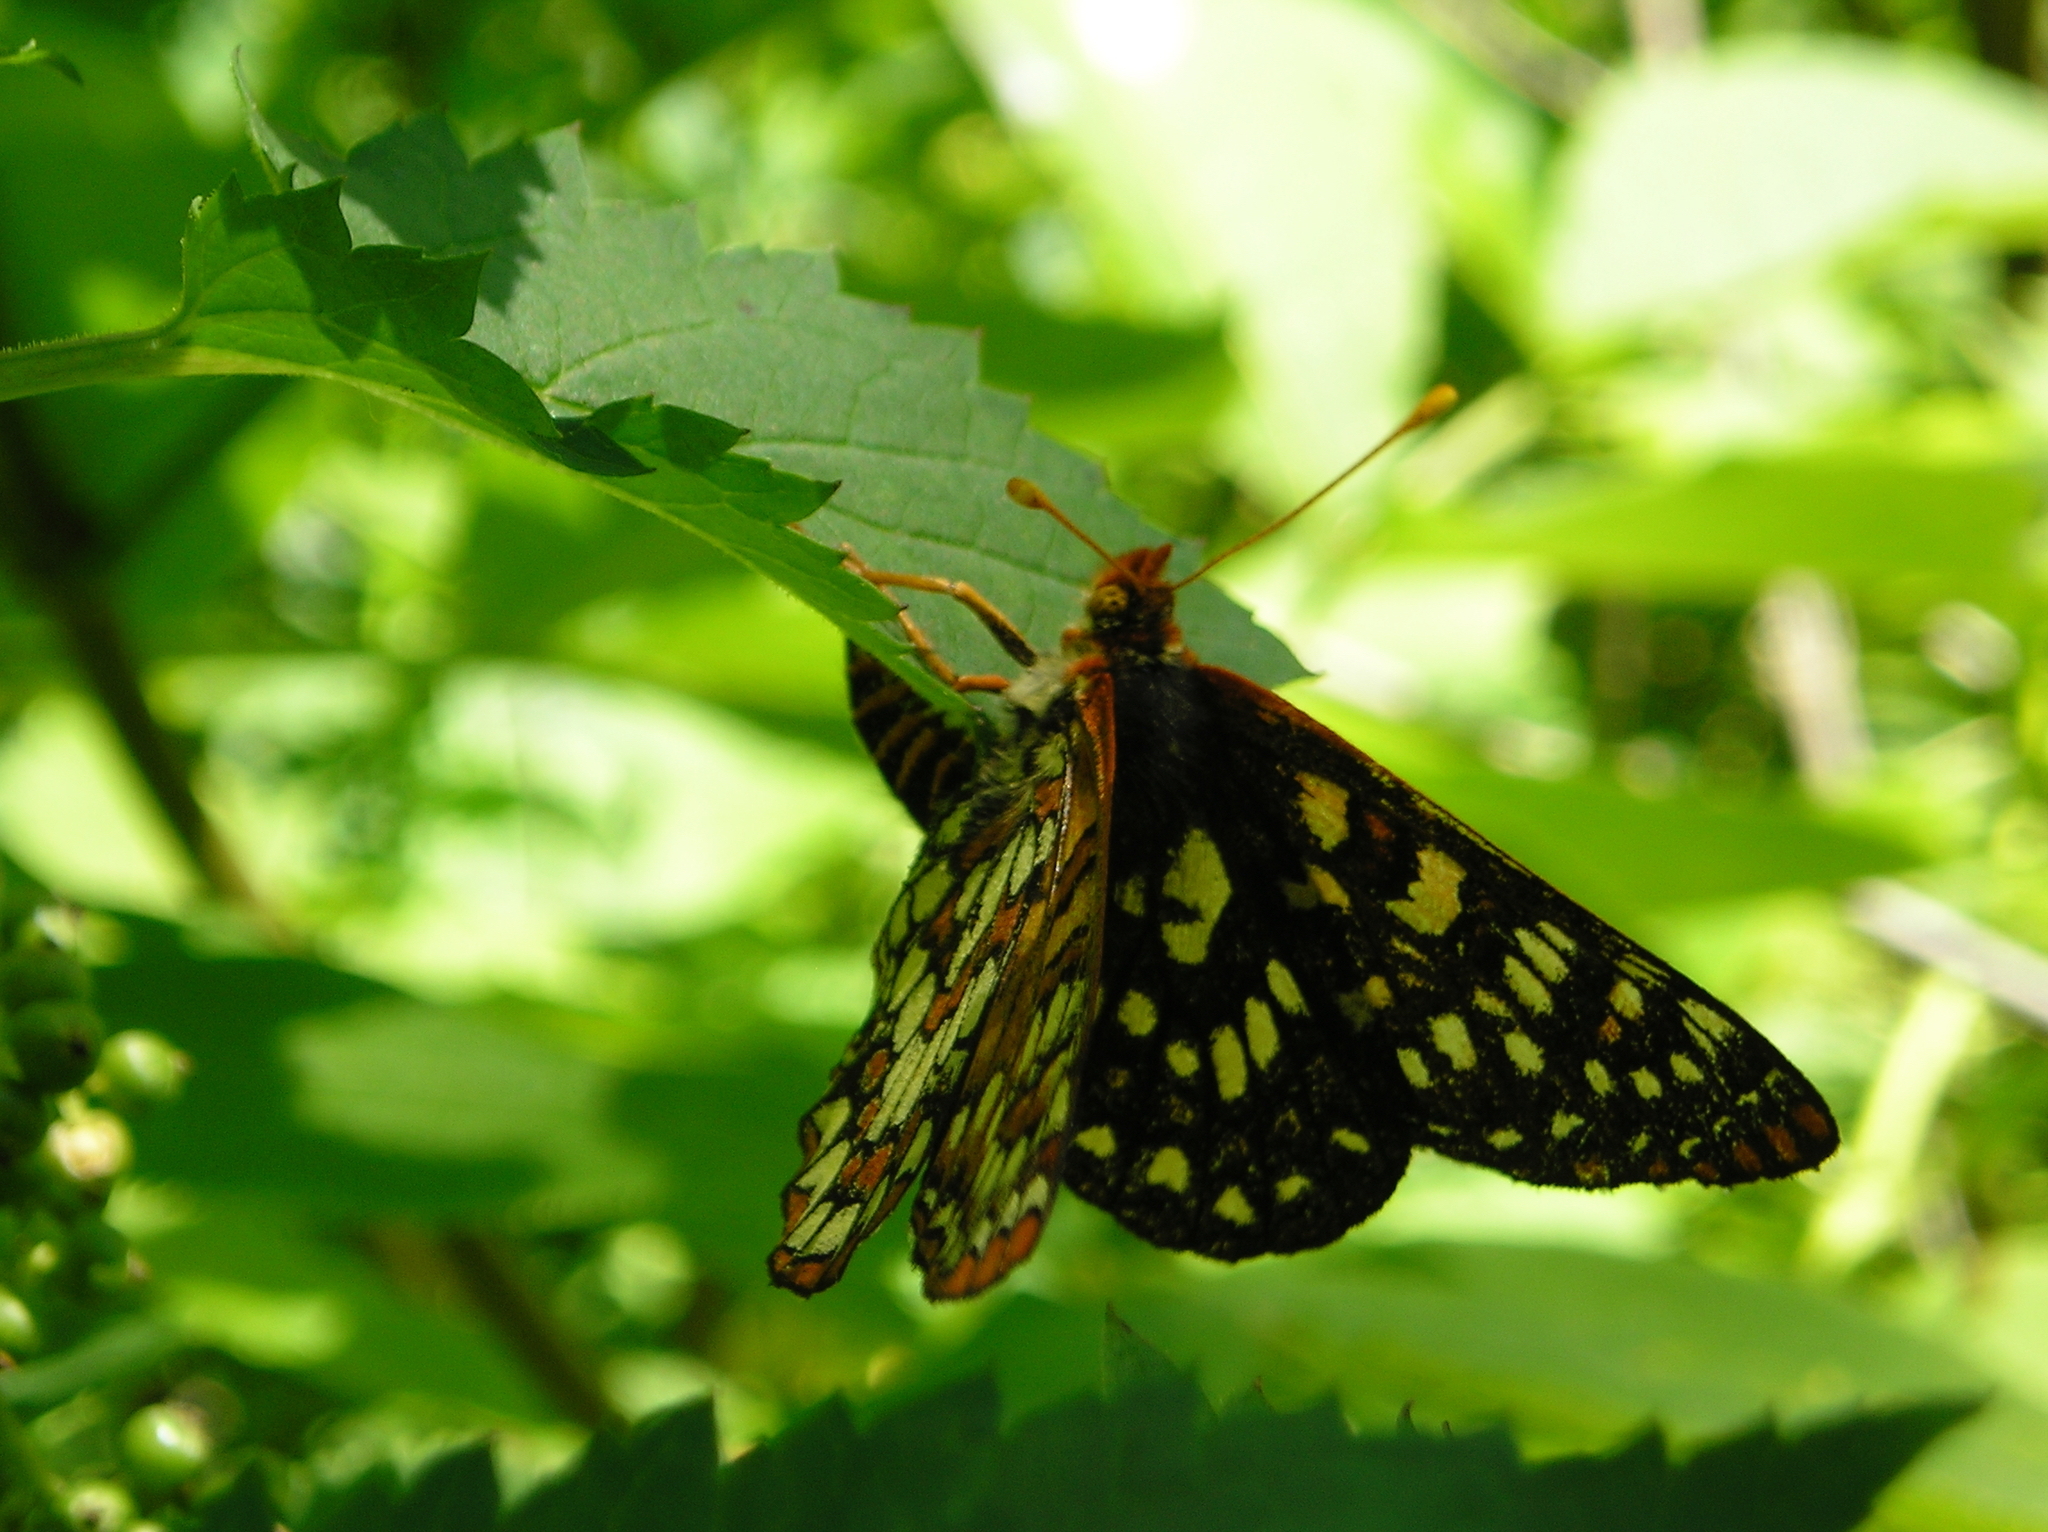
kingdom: Animalia
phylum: Arthropoda
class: Insecta
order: Lepidoptera
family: Nymphalidae
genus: Occidryas
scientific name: Occidryas chalcedona
